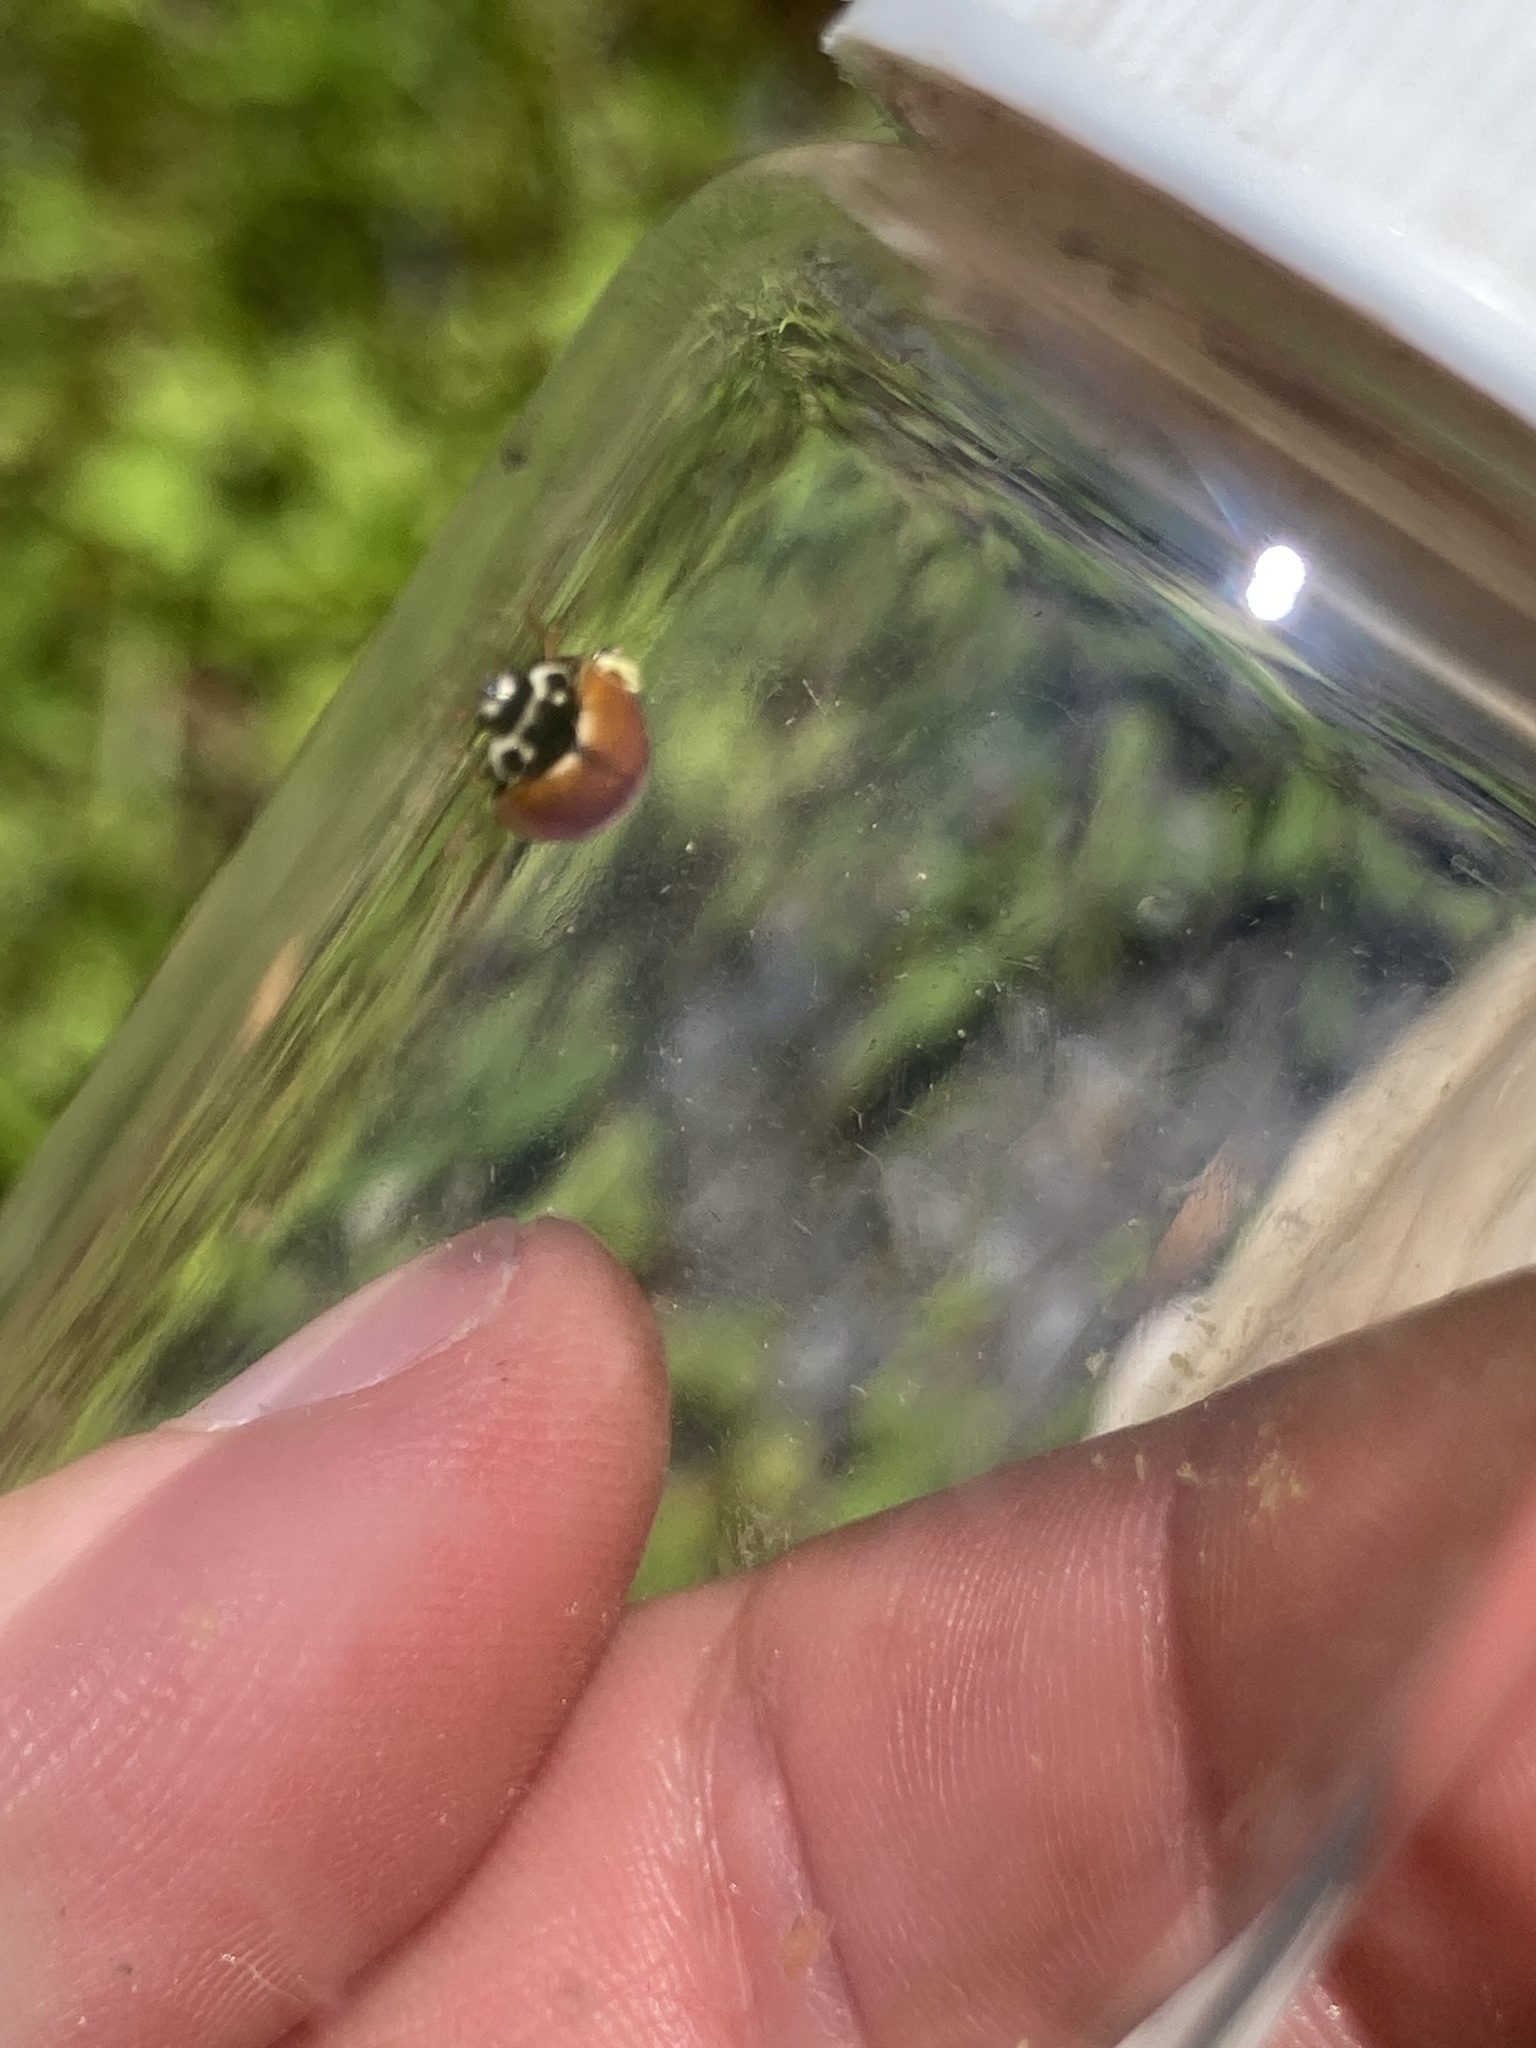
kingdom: Animalia
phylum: Arthropoda
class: Insecta
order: Coleoptera
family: Coccinellidae
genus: Cycloneda
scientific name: Cycloneda munda
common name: Polished lady beetle
